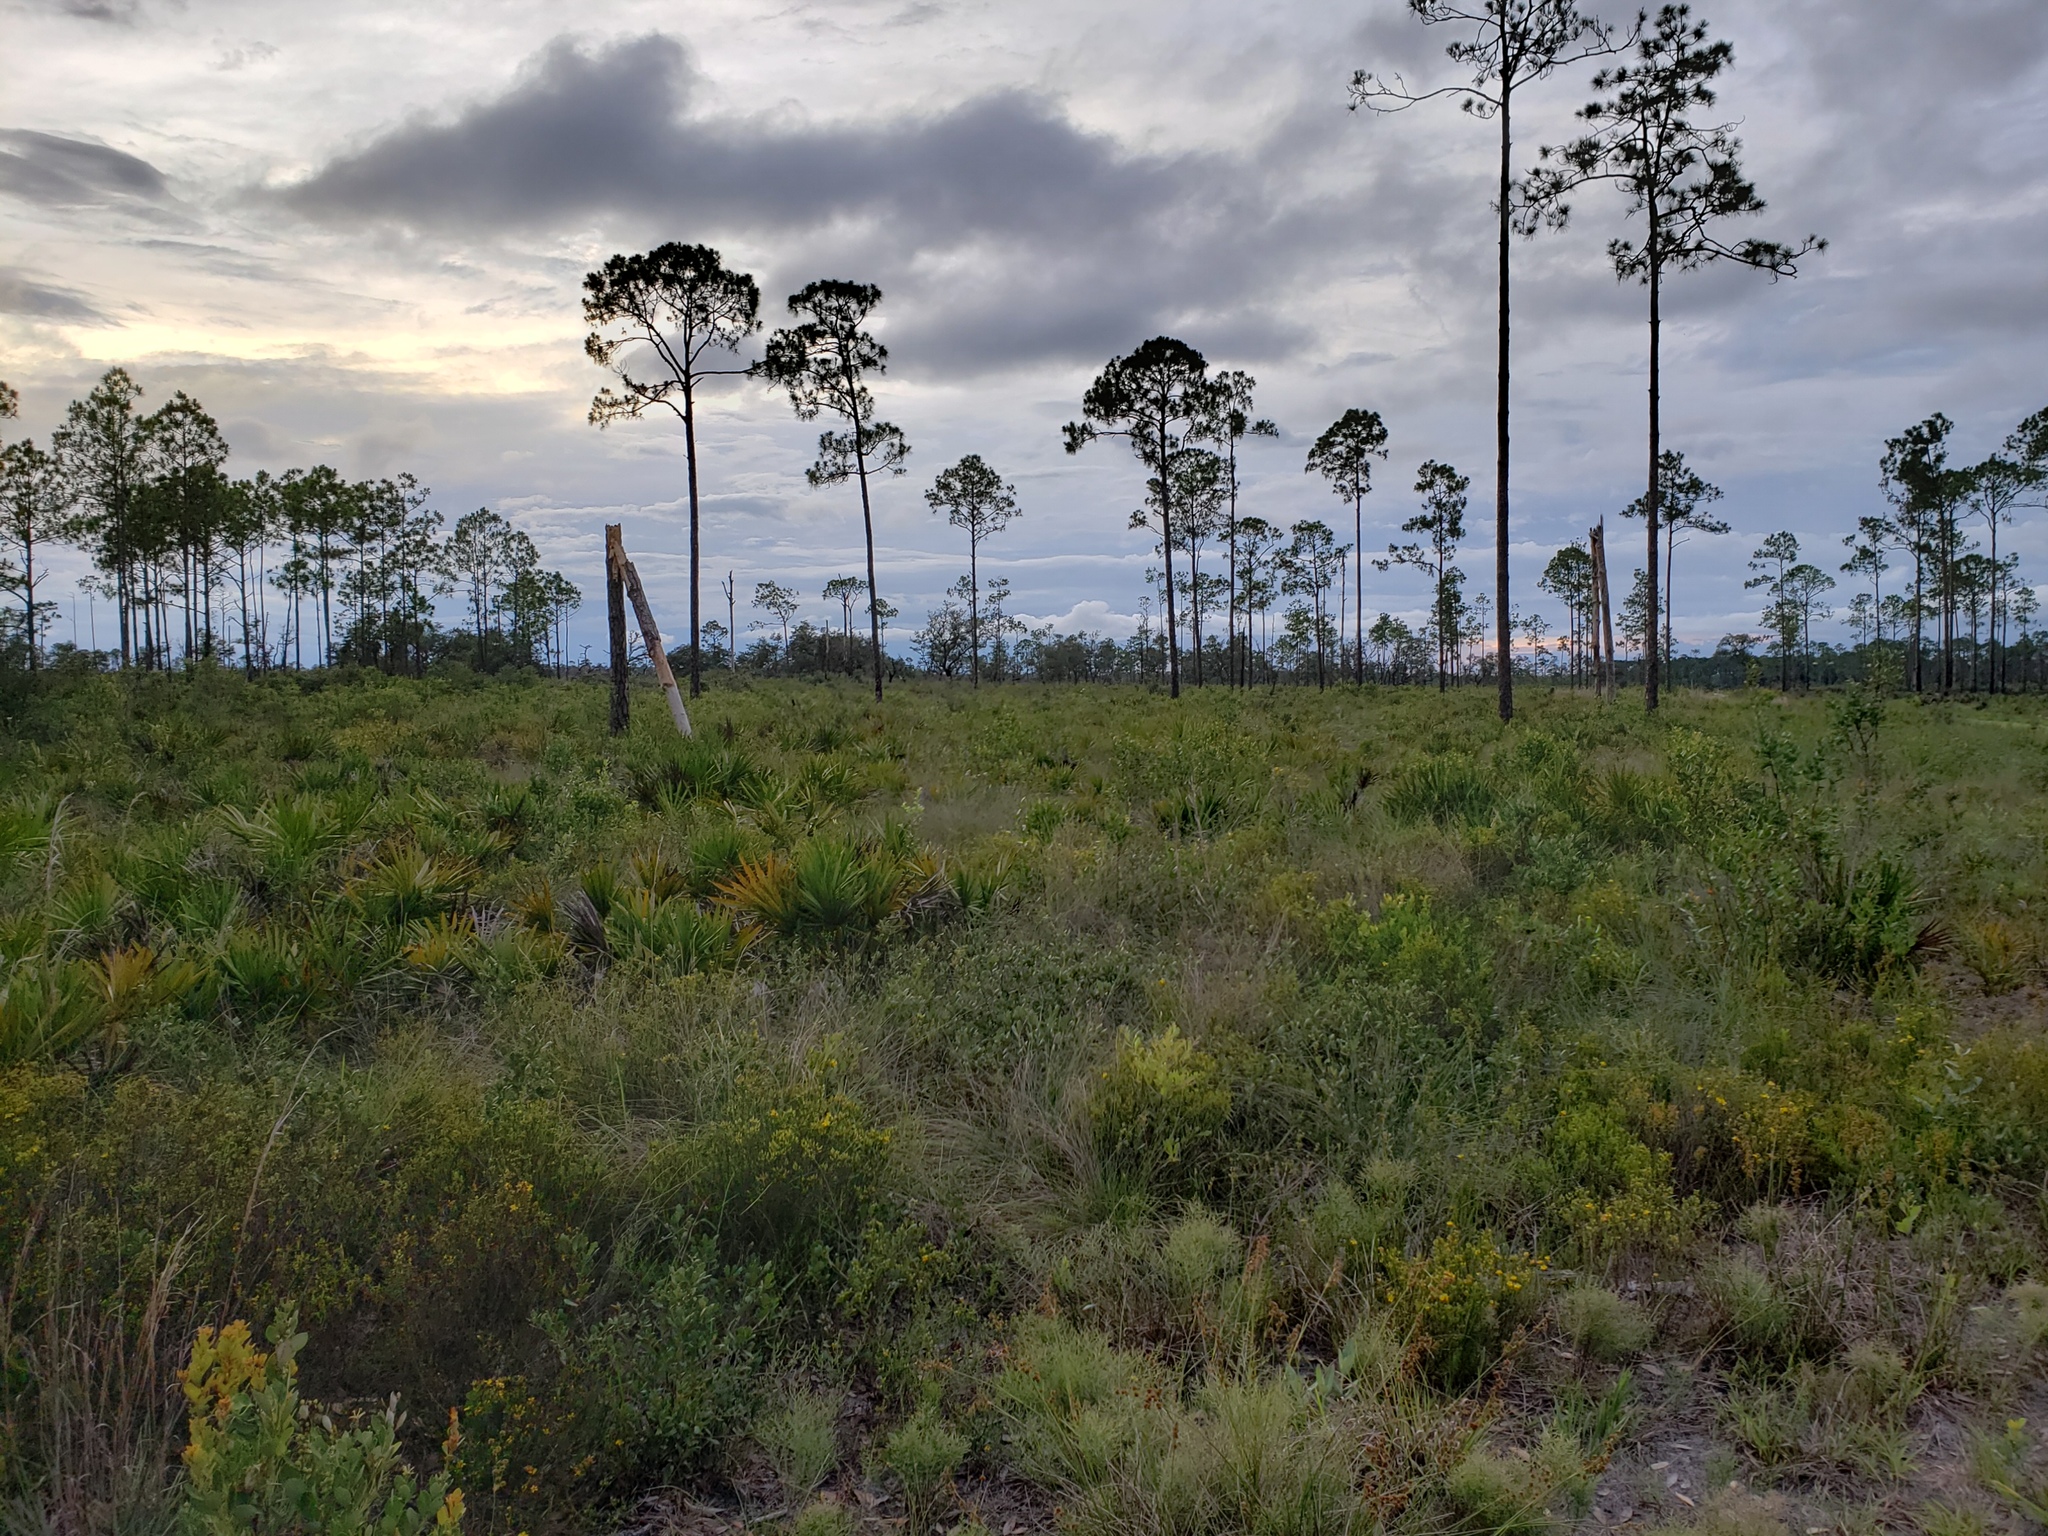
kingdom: Plantae
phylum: Tracheophyta
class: Liliopsida
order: Arecales
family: Arecaceae
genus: Serenoa
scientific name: Serenoa repens
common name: Saw-palmetto
